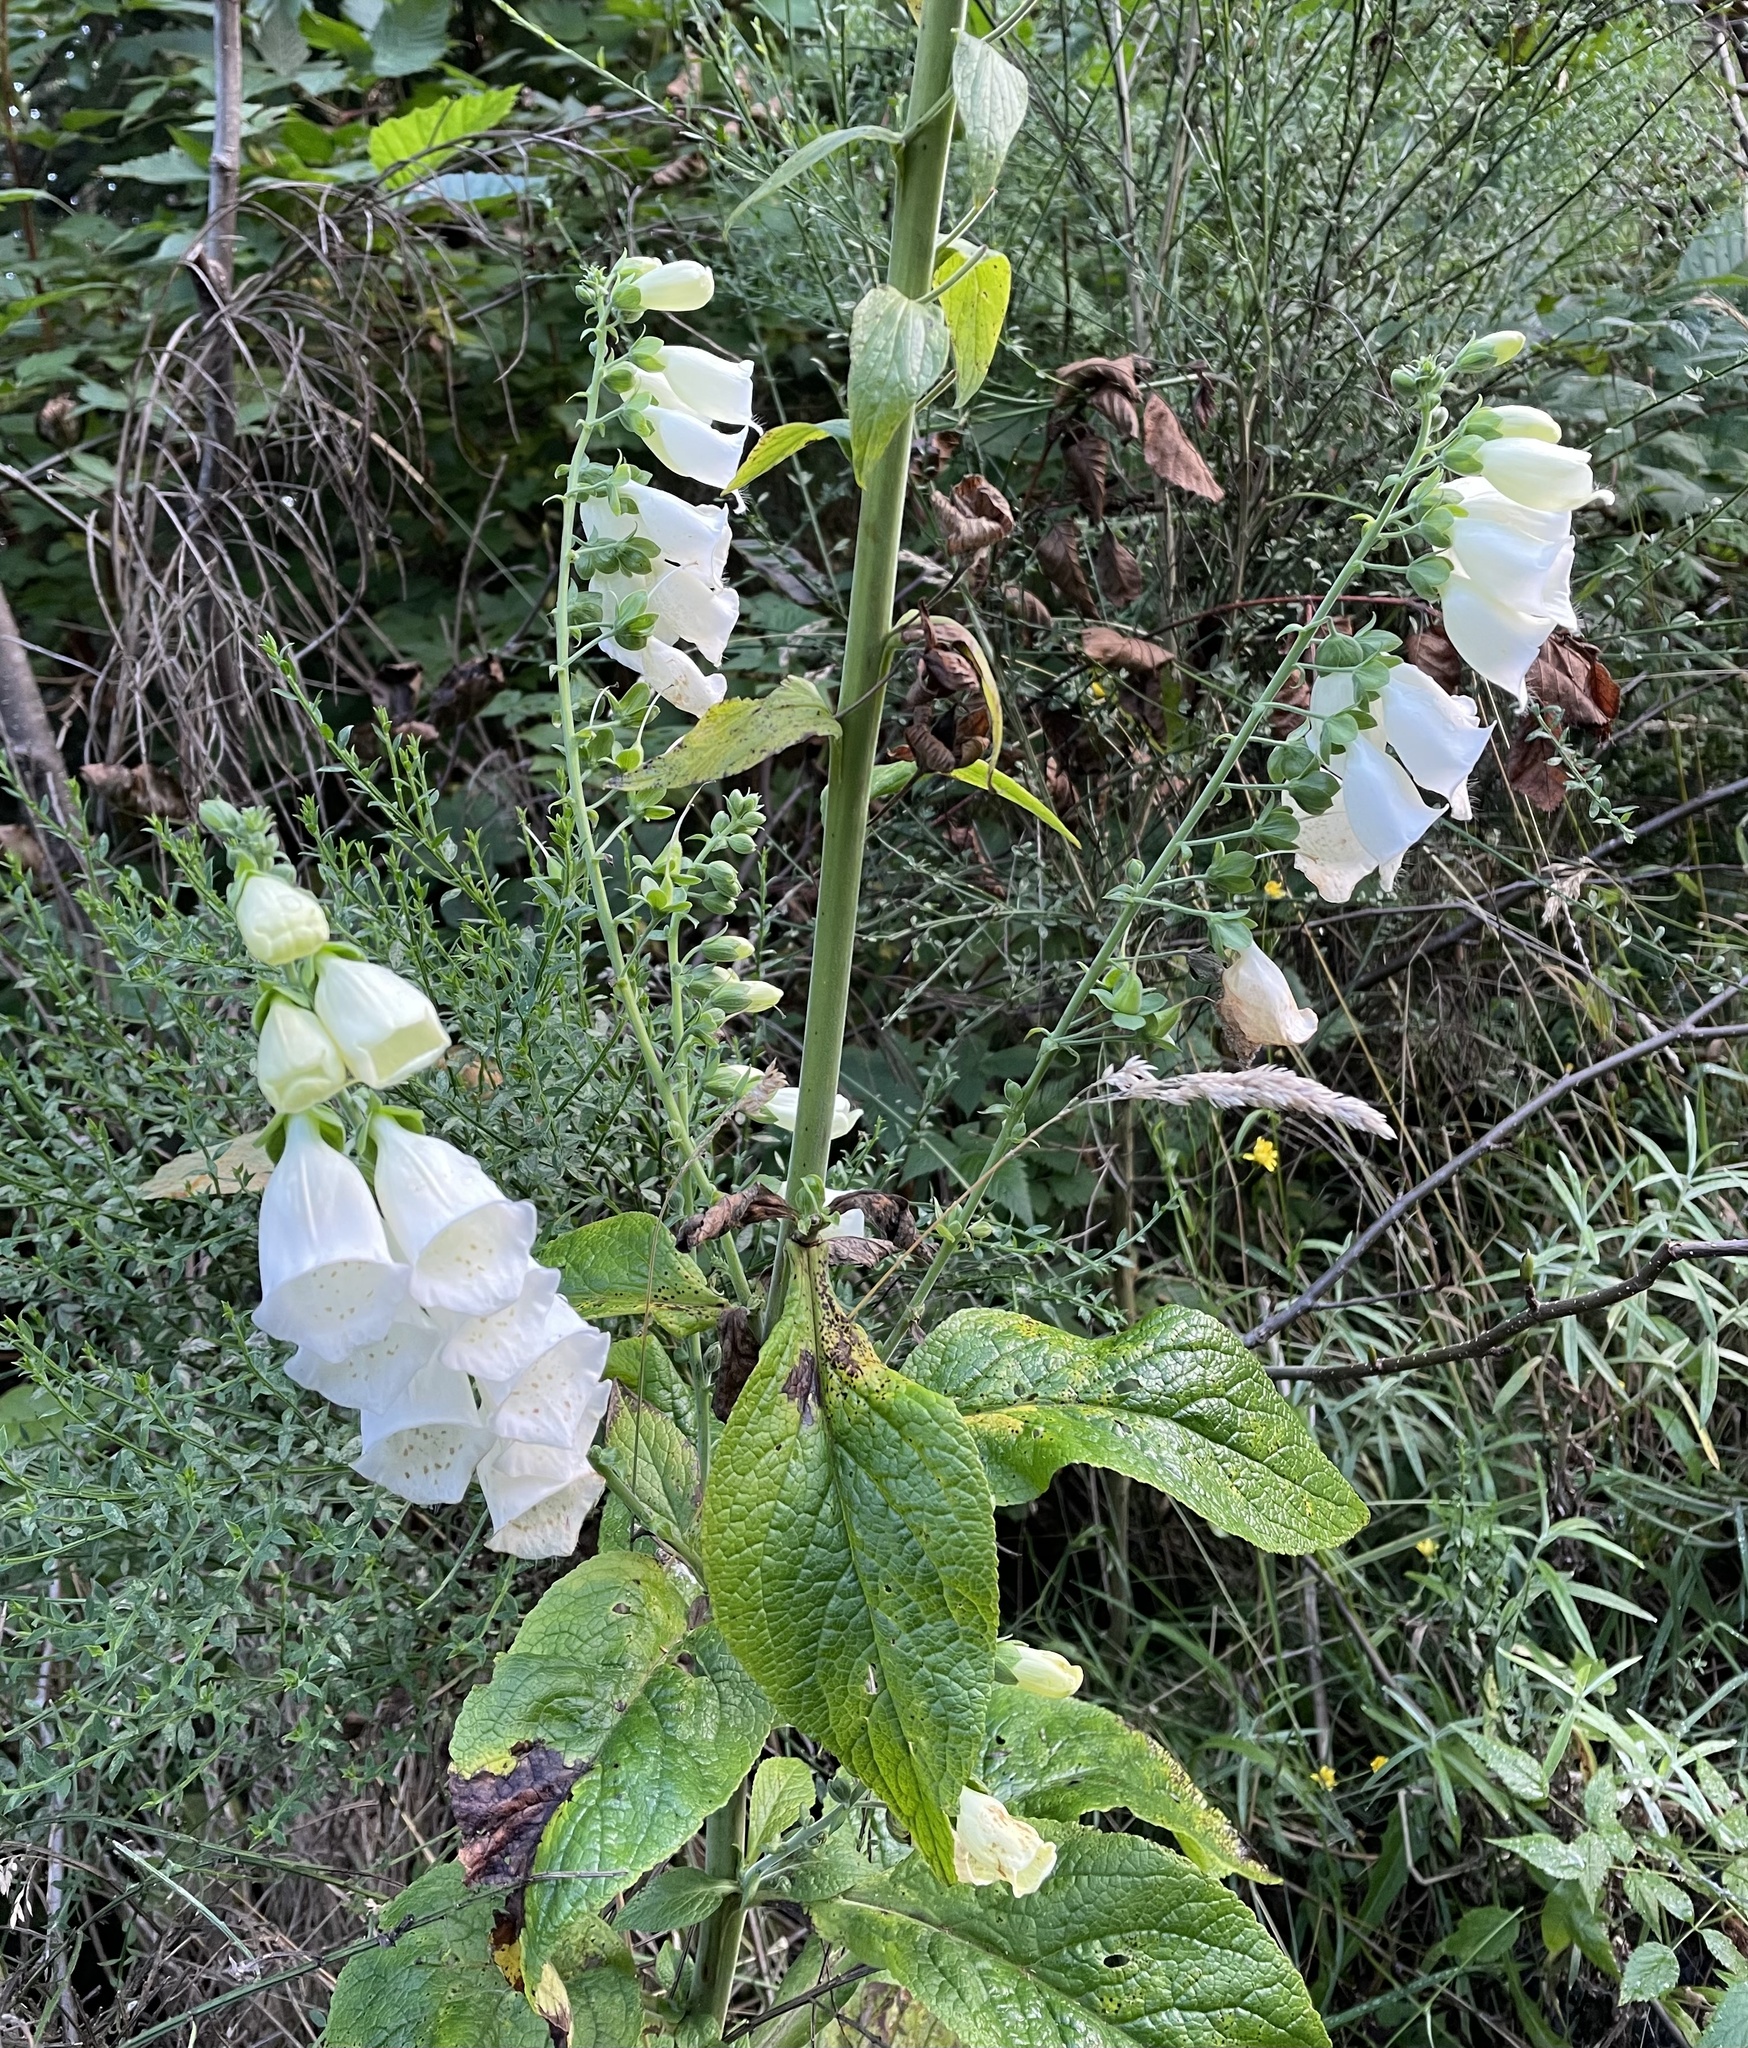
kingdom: Plantae
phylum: Tracheophyta
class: Magnoliopsida
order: Lamiales
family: Plantaginaceae
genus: Digitalis
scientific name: Digitalis purpurea
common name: Foxglove
